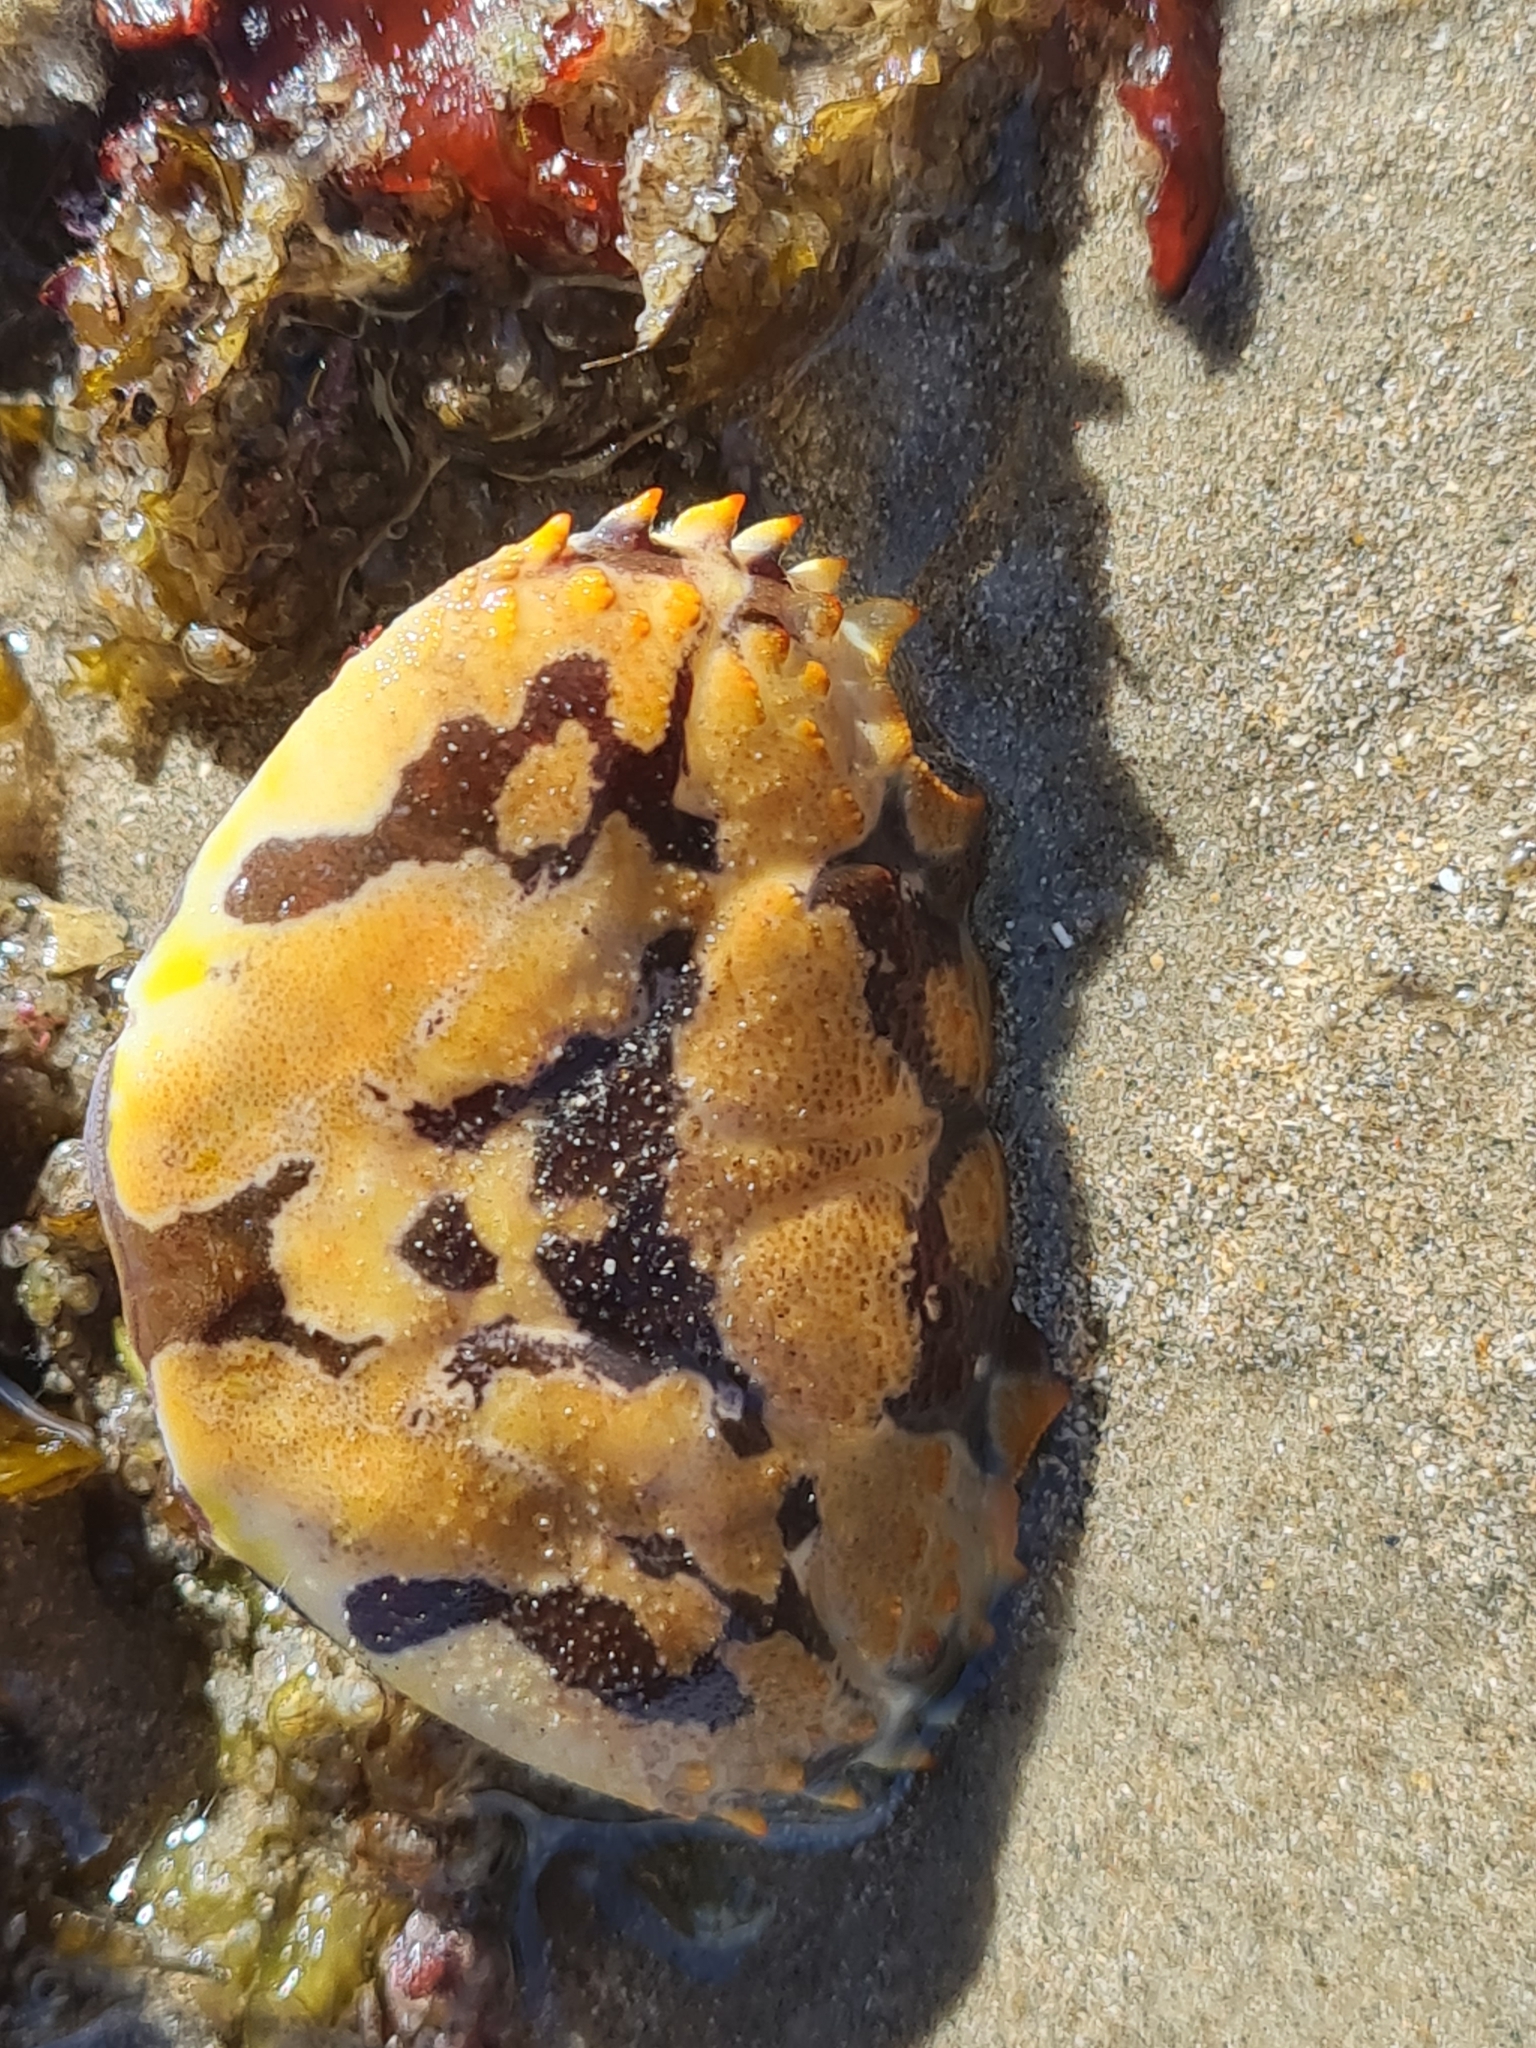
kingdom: Animalia
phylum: Arthropoda
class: Malacostraca
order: Decapoda
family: Eriphiidae
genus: Eriphia
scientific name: Eriphia gonagra
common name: Calico crab
